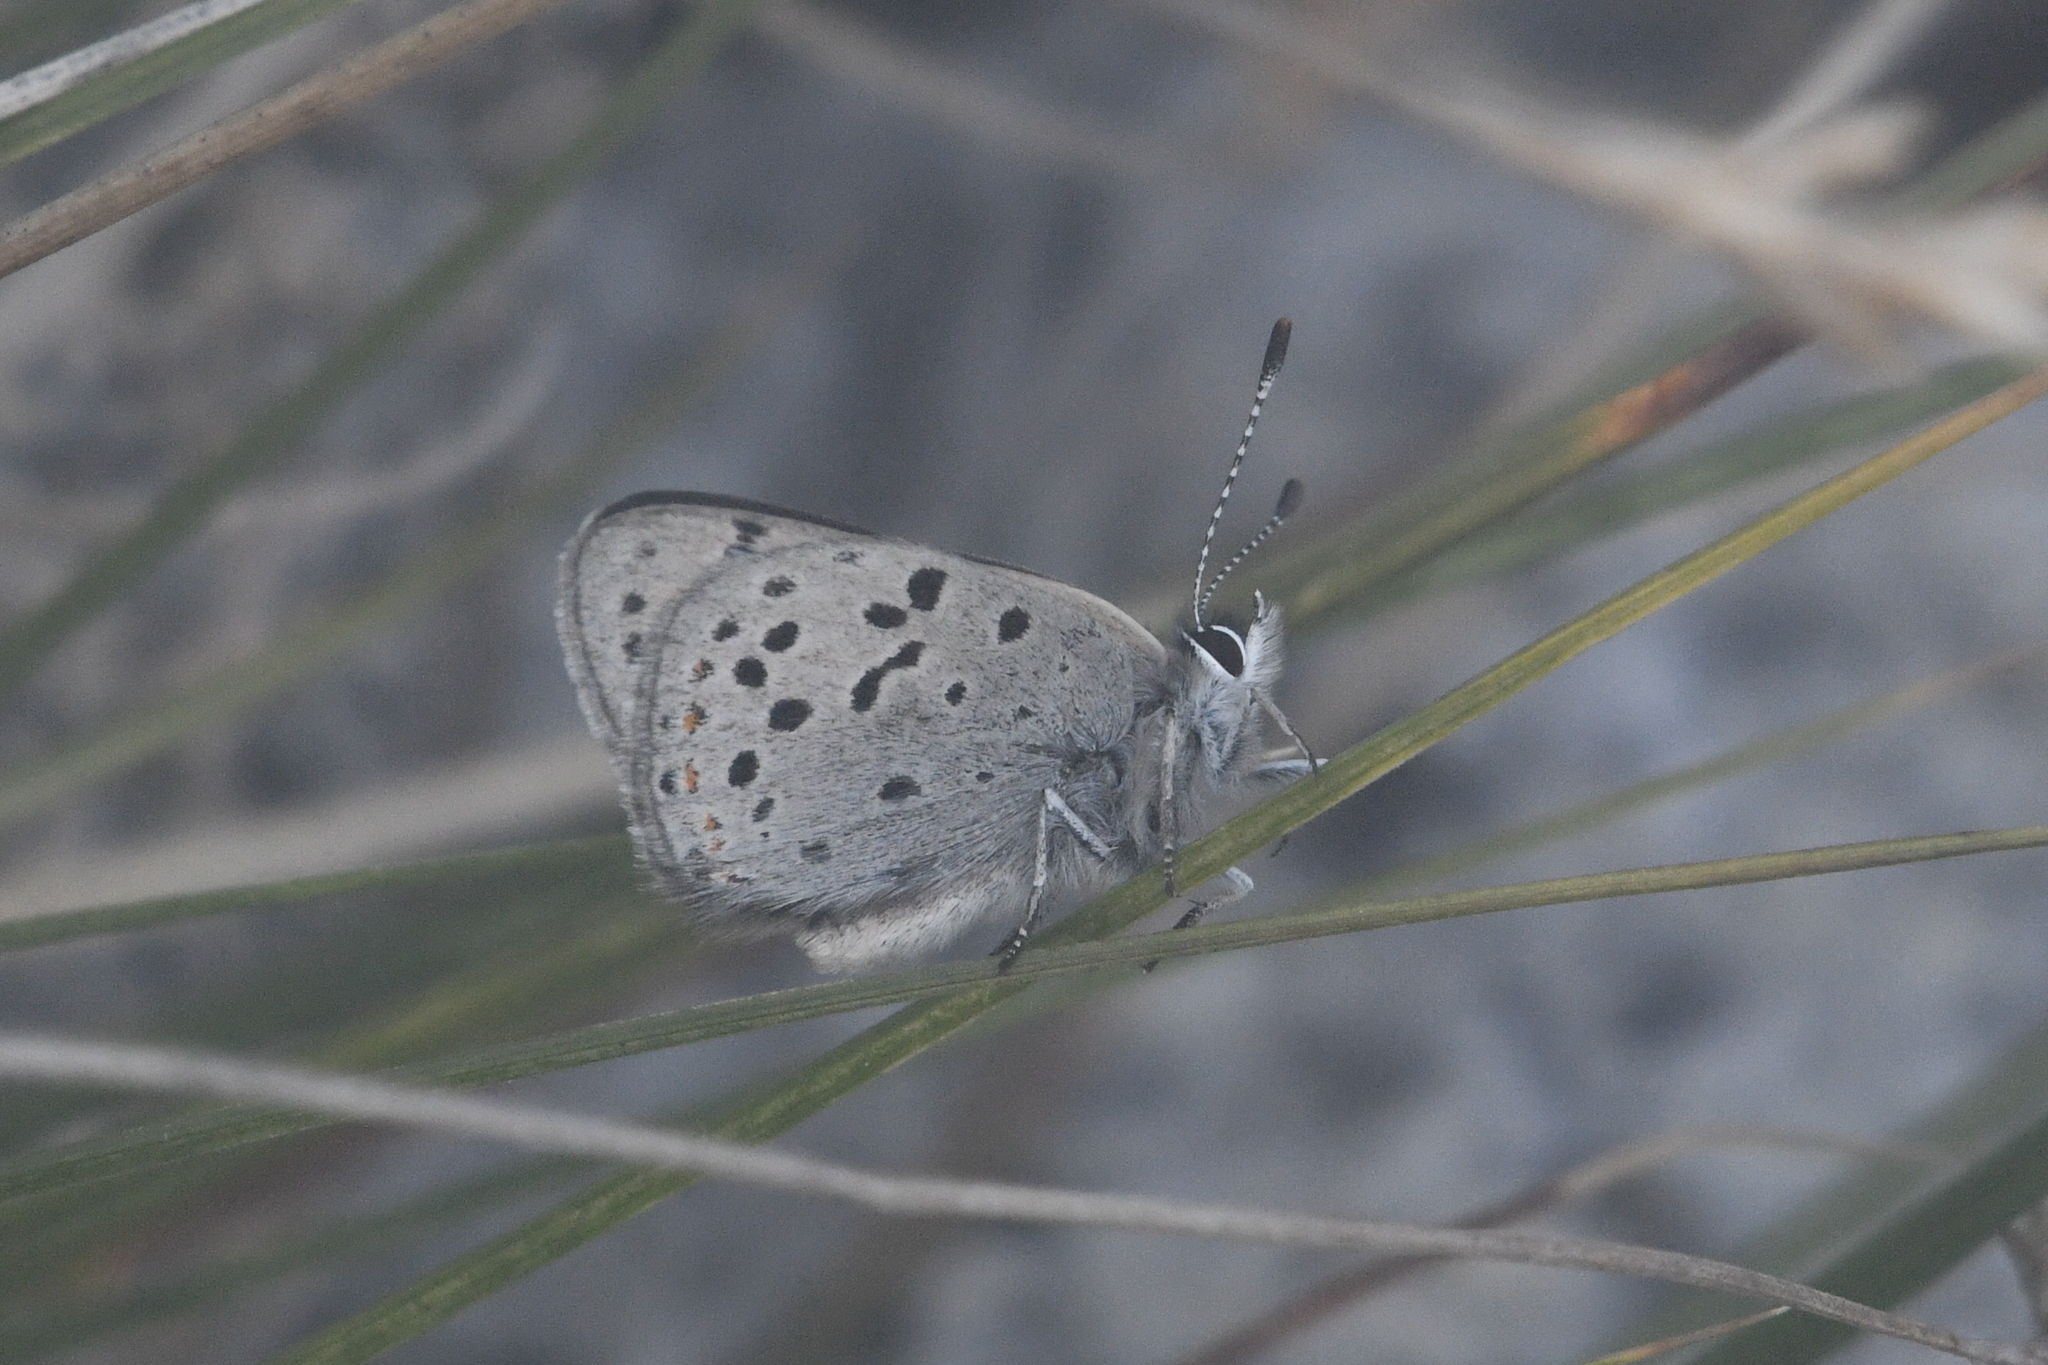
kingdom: Animalia
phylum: Arthropoda
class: Insecta
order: Lepidoptera
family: Lycaenidae
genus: Lycaena
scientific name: Lycaena cupreus
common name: Lustrous copper
